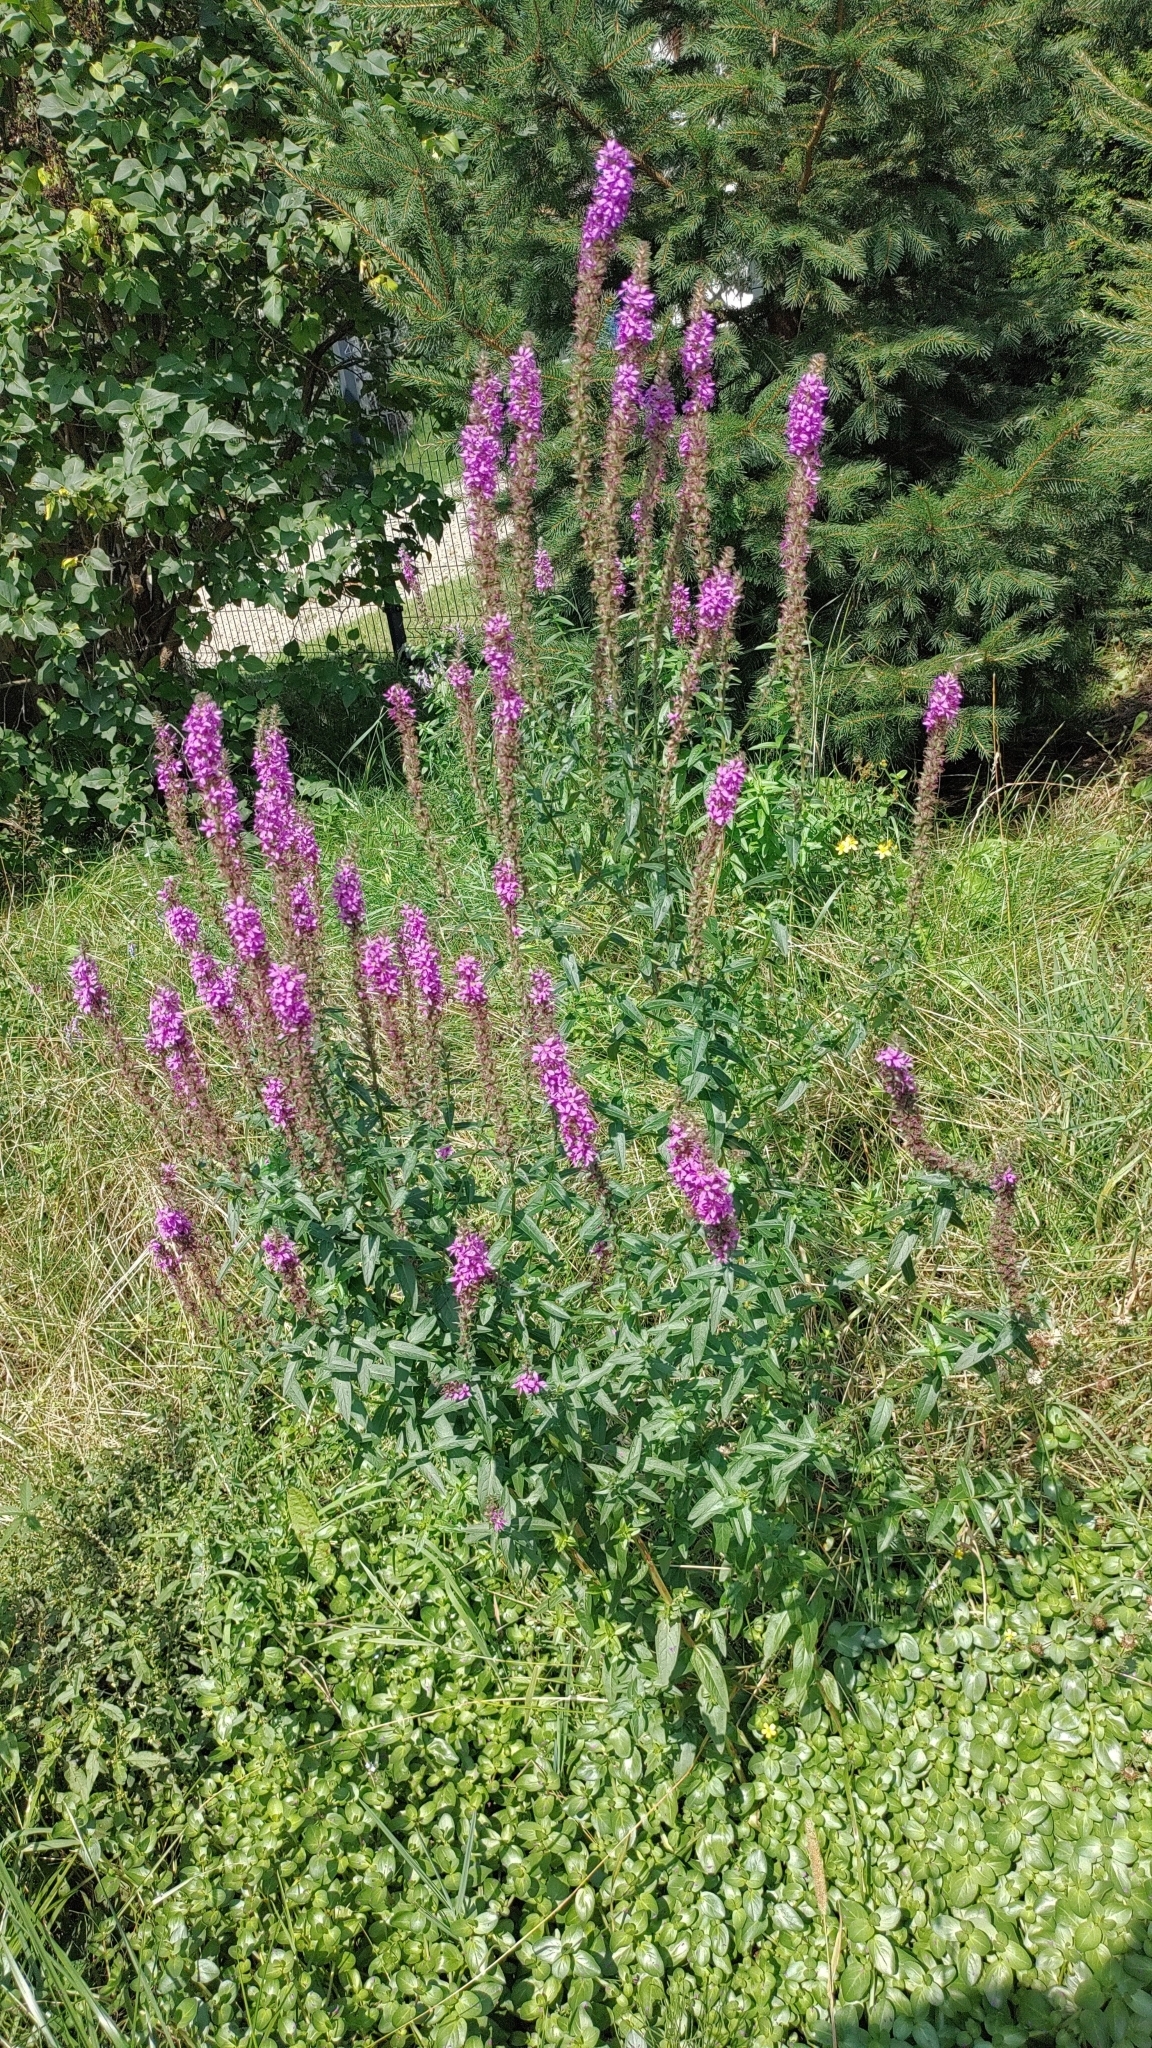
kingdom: Plantae
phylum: Tracheophyta
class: Magnoliopsida
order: Myrtales
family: Lythraceae
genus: Lythrum
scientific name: Lythrum salicaria
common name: Purple loosestrife
